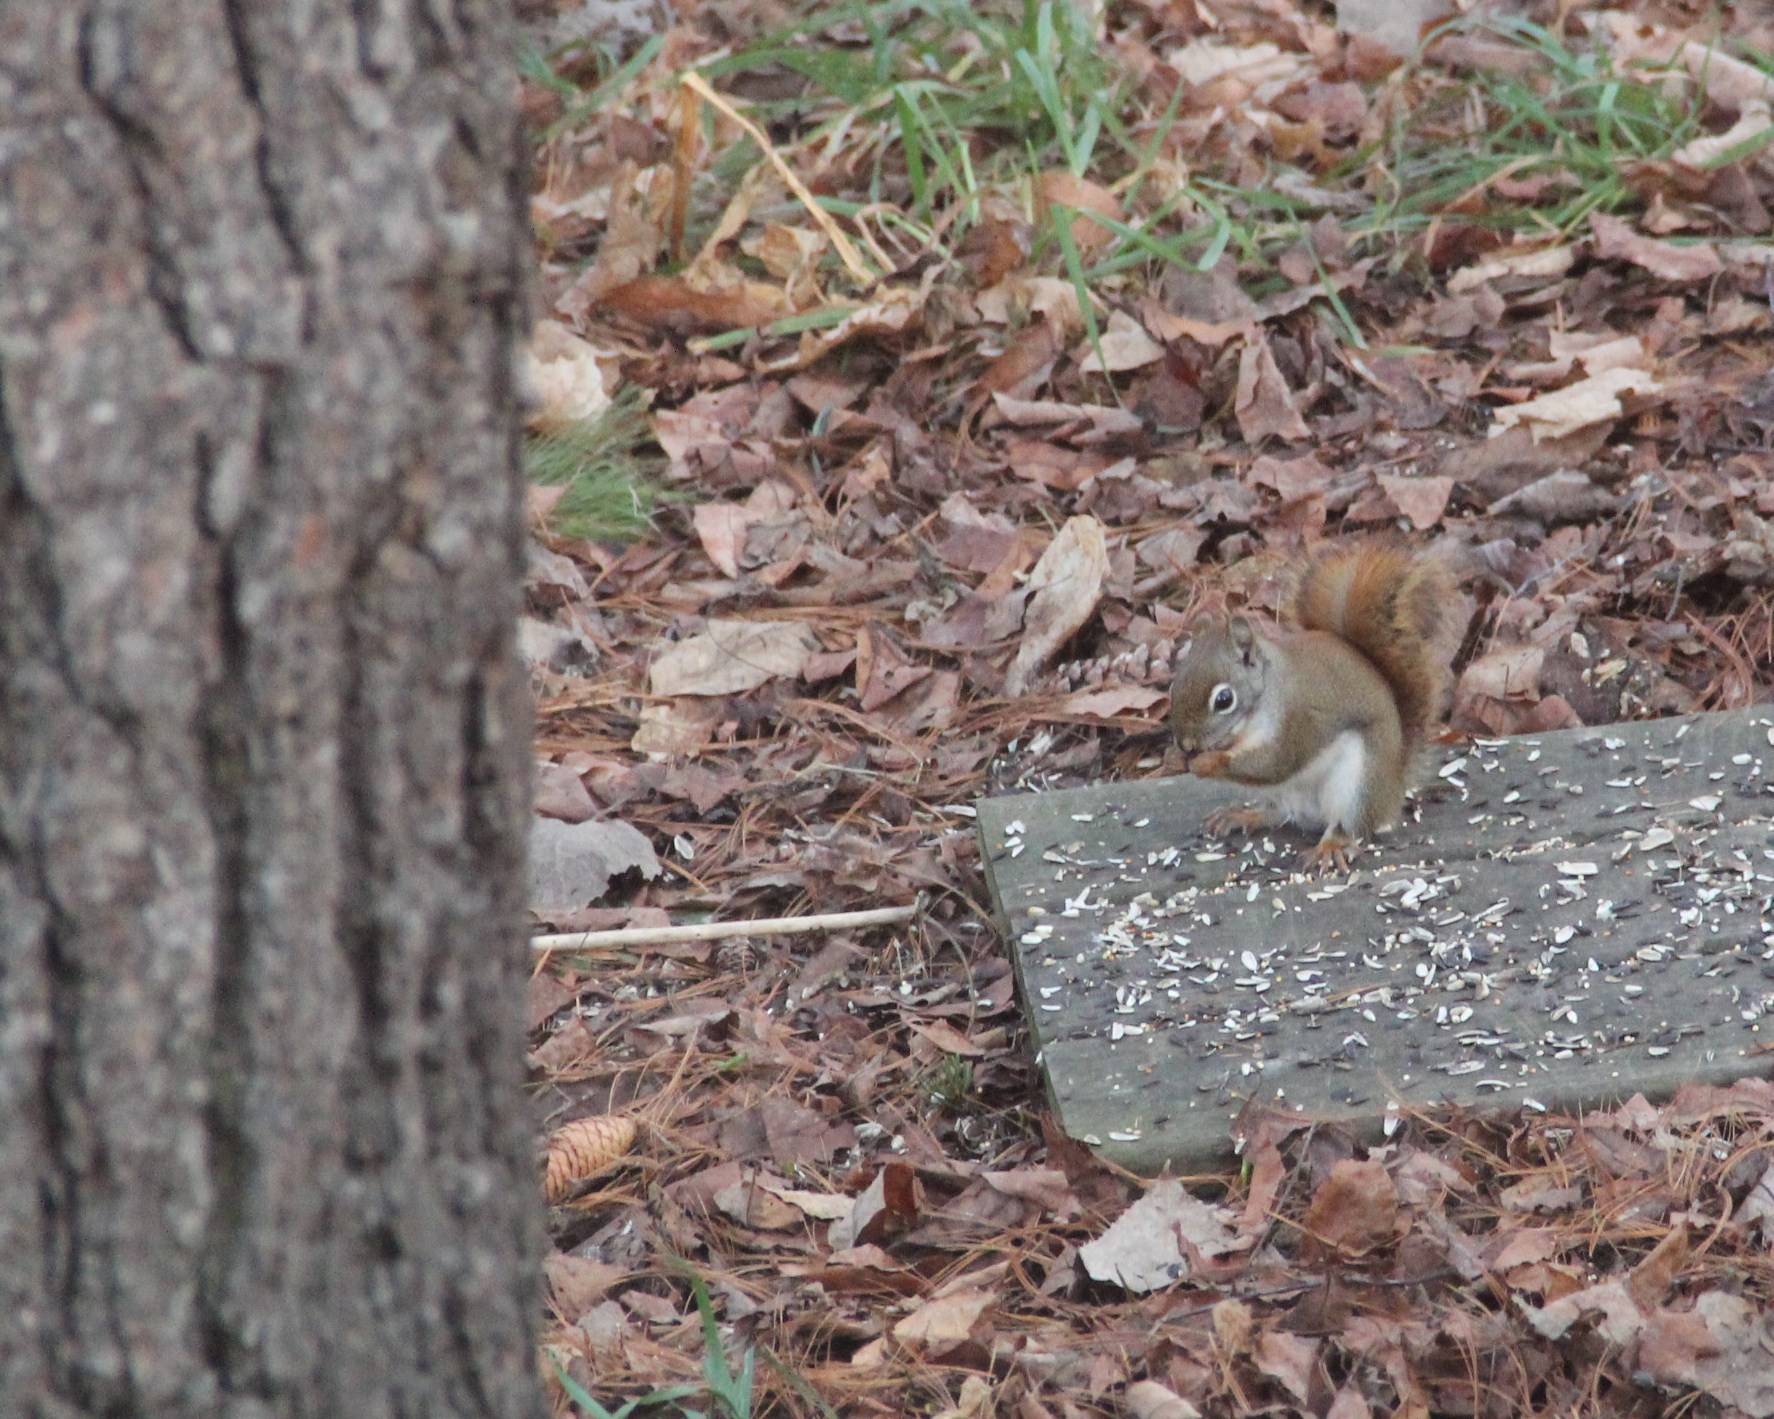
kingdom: Animalia
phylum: Chordata
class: Mammalia
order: Rodentia
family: Sciuridae
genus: Tamiasciurus
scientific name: Tamiasciurus hudsonicus
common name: Red squirrel
